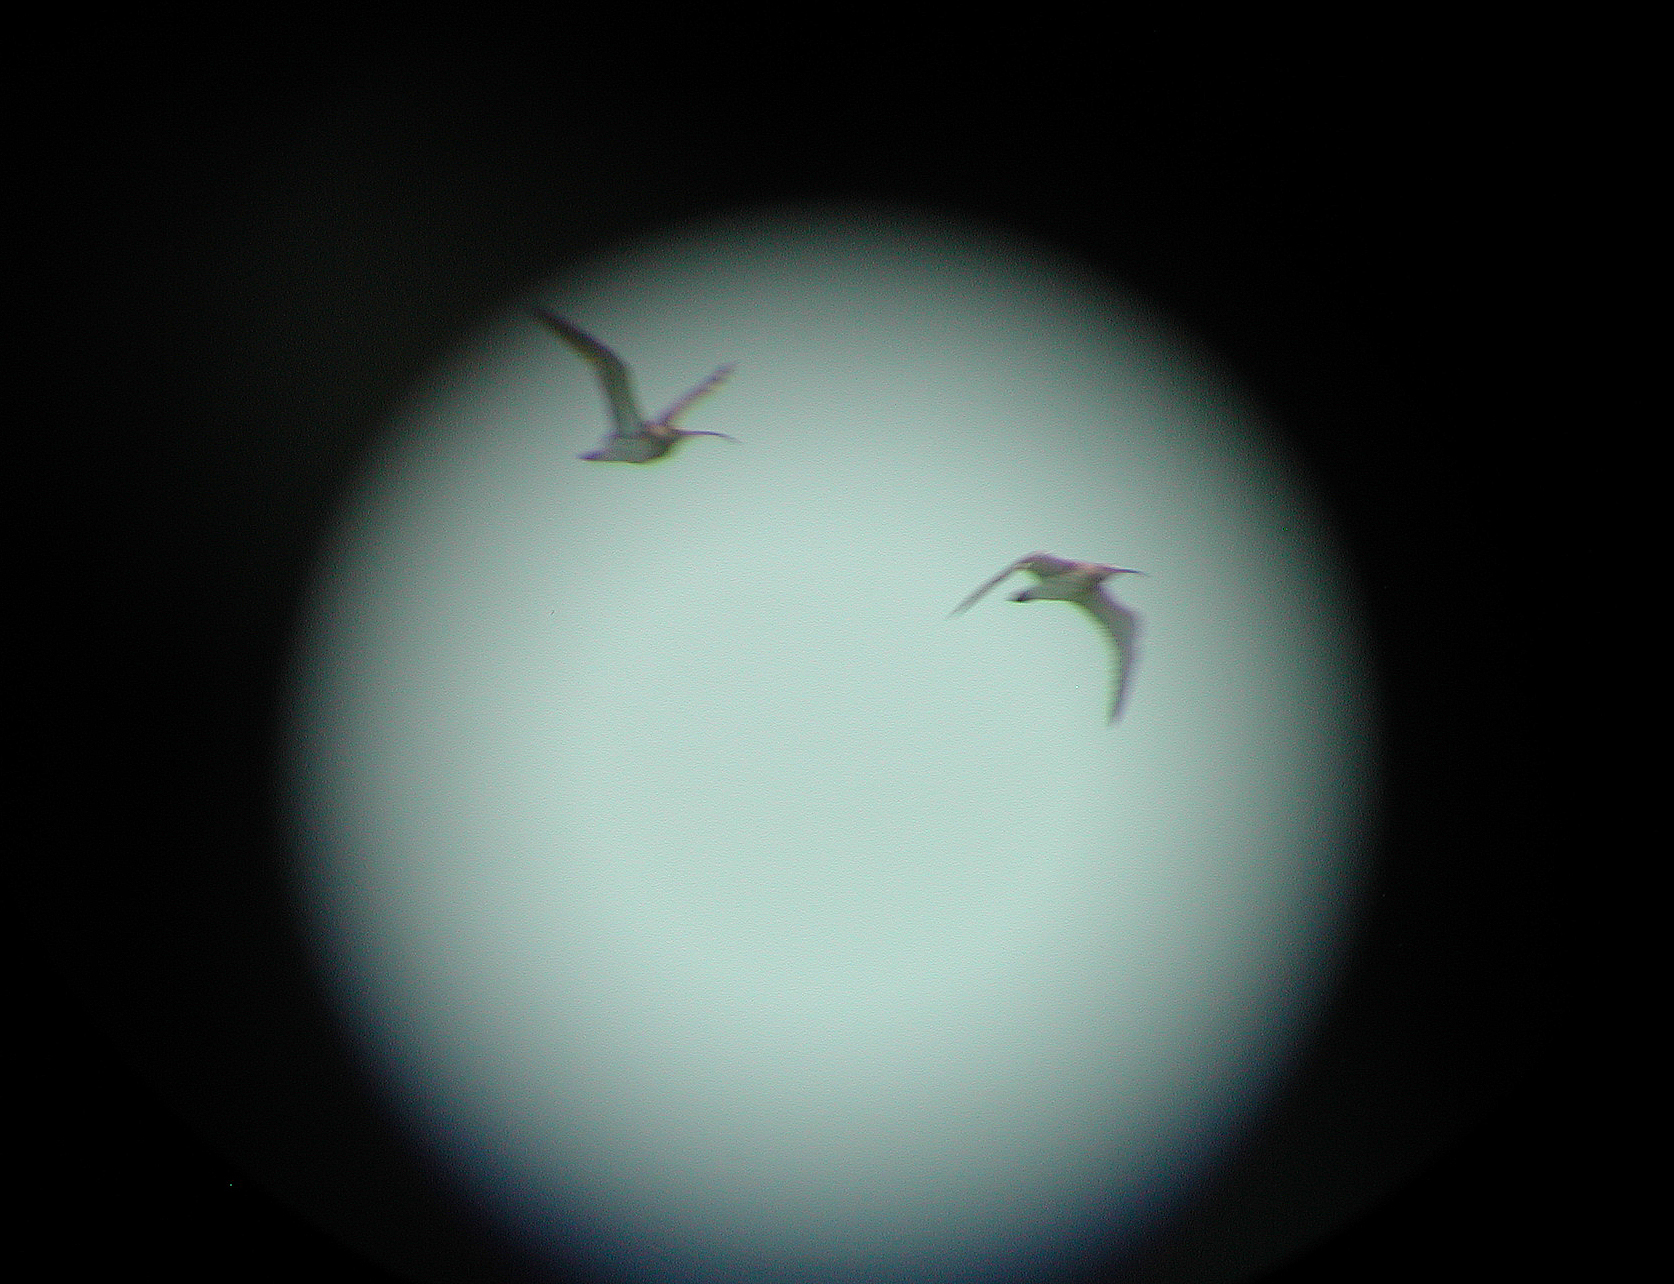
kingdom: Animalia
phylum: Chordata
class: Aves
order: Charadriiformes
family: Scolopacidae
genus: Numenius
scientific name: Numenius arquata
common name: Eurasian curlew
